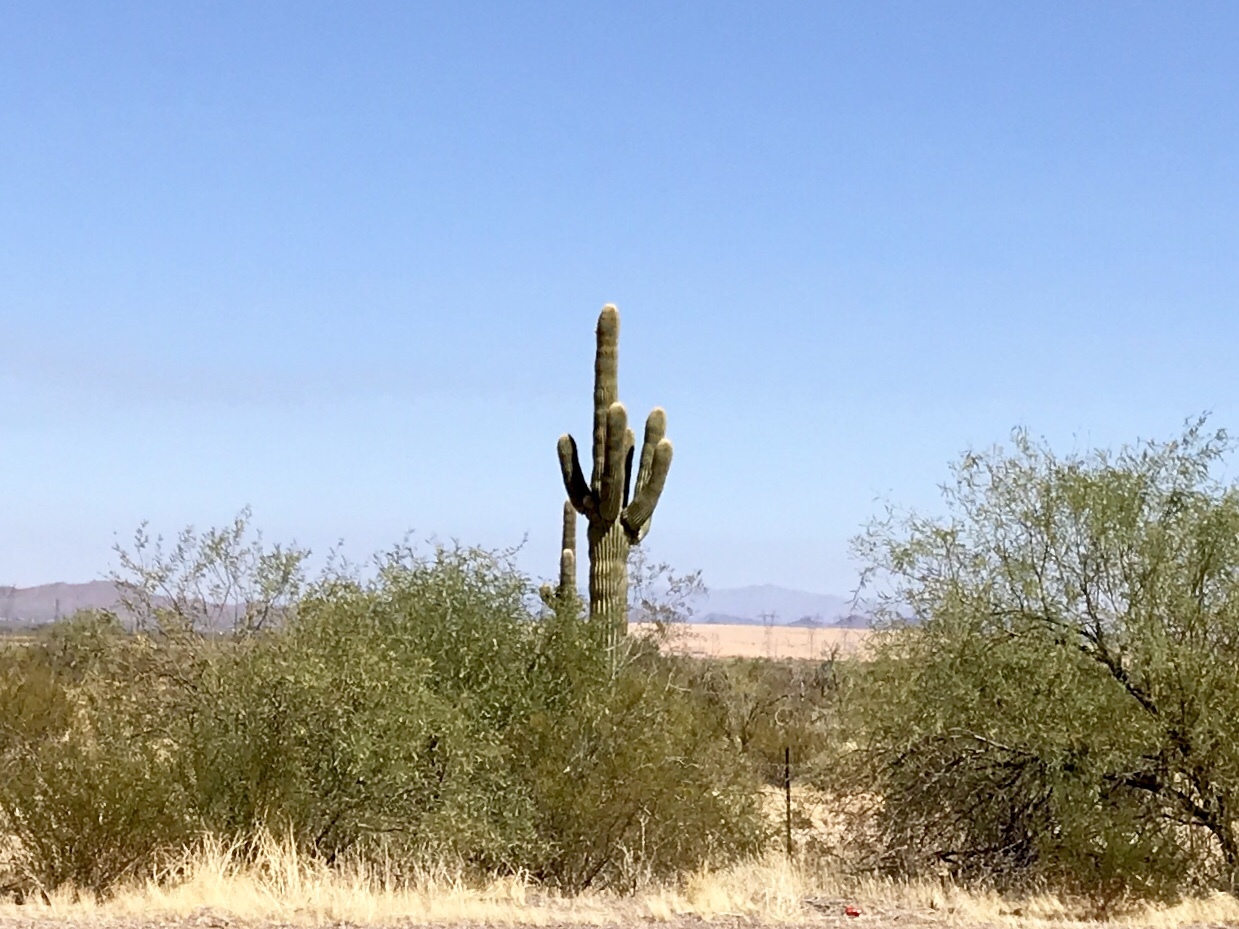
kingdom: Plantae
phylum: Tracheophyta
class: Magnoliopsida
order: Caryophyllales
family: Cactaceae
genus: Carnegiea
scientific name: Carnegiea gigantea
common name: Saguaro
